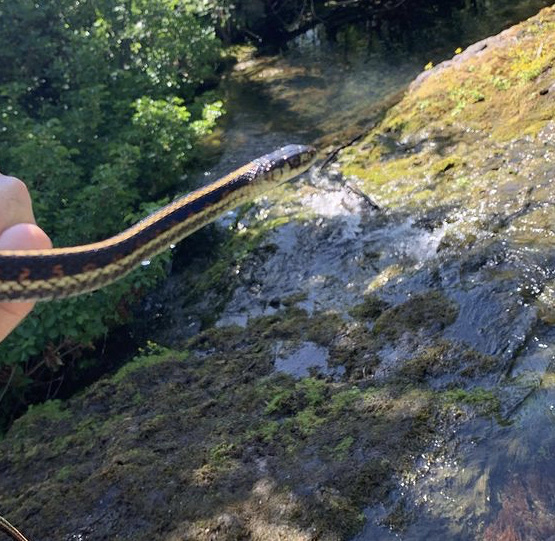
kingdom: Animalia
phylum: Chordata
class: Squamata
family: Colubridae
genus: Thamnophis
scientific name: Thamnophis sirtalis
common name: Common garter snake
